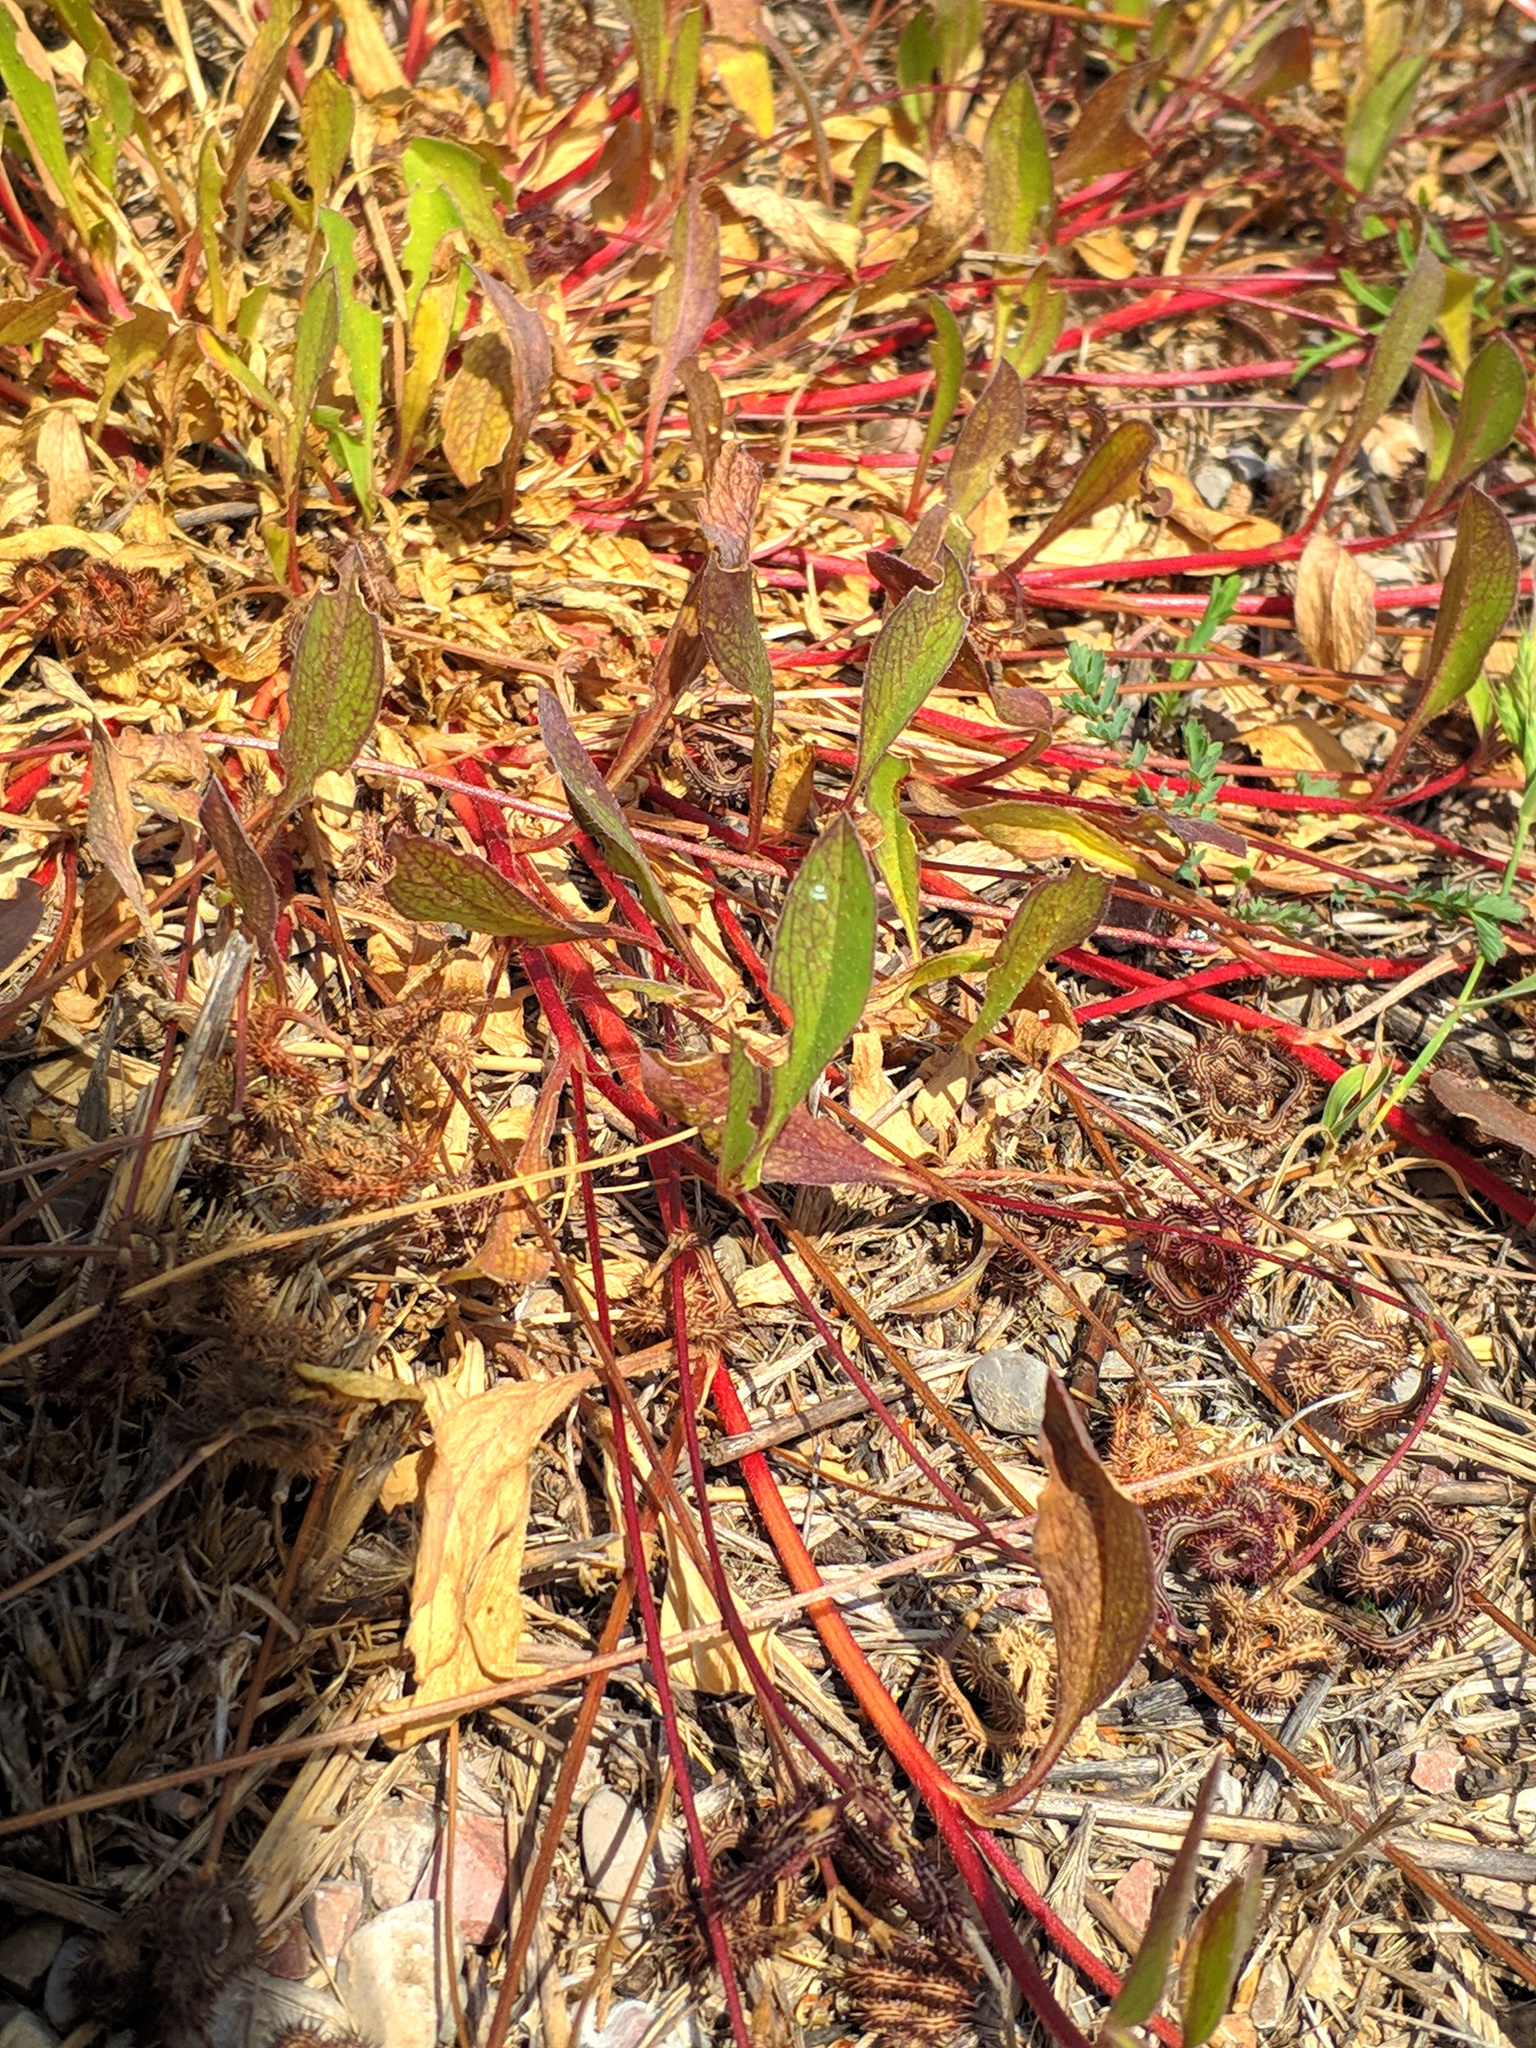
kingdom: Plantae
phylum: Tracheophyta
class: Magnoliopsida
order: Fabales
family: Fabaceae
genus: Scorpiurus
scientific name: Scorpiurus muricatus
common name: Caterpillar-plant
